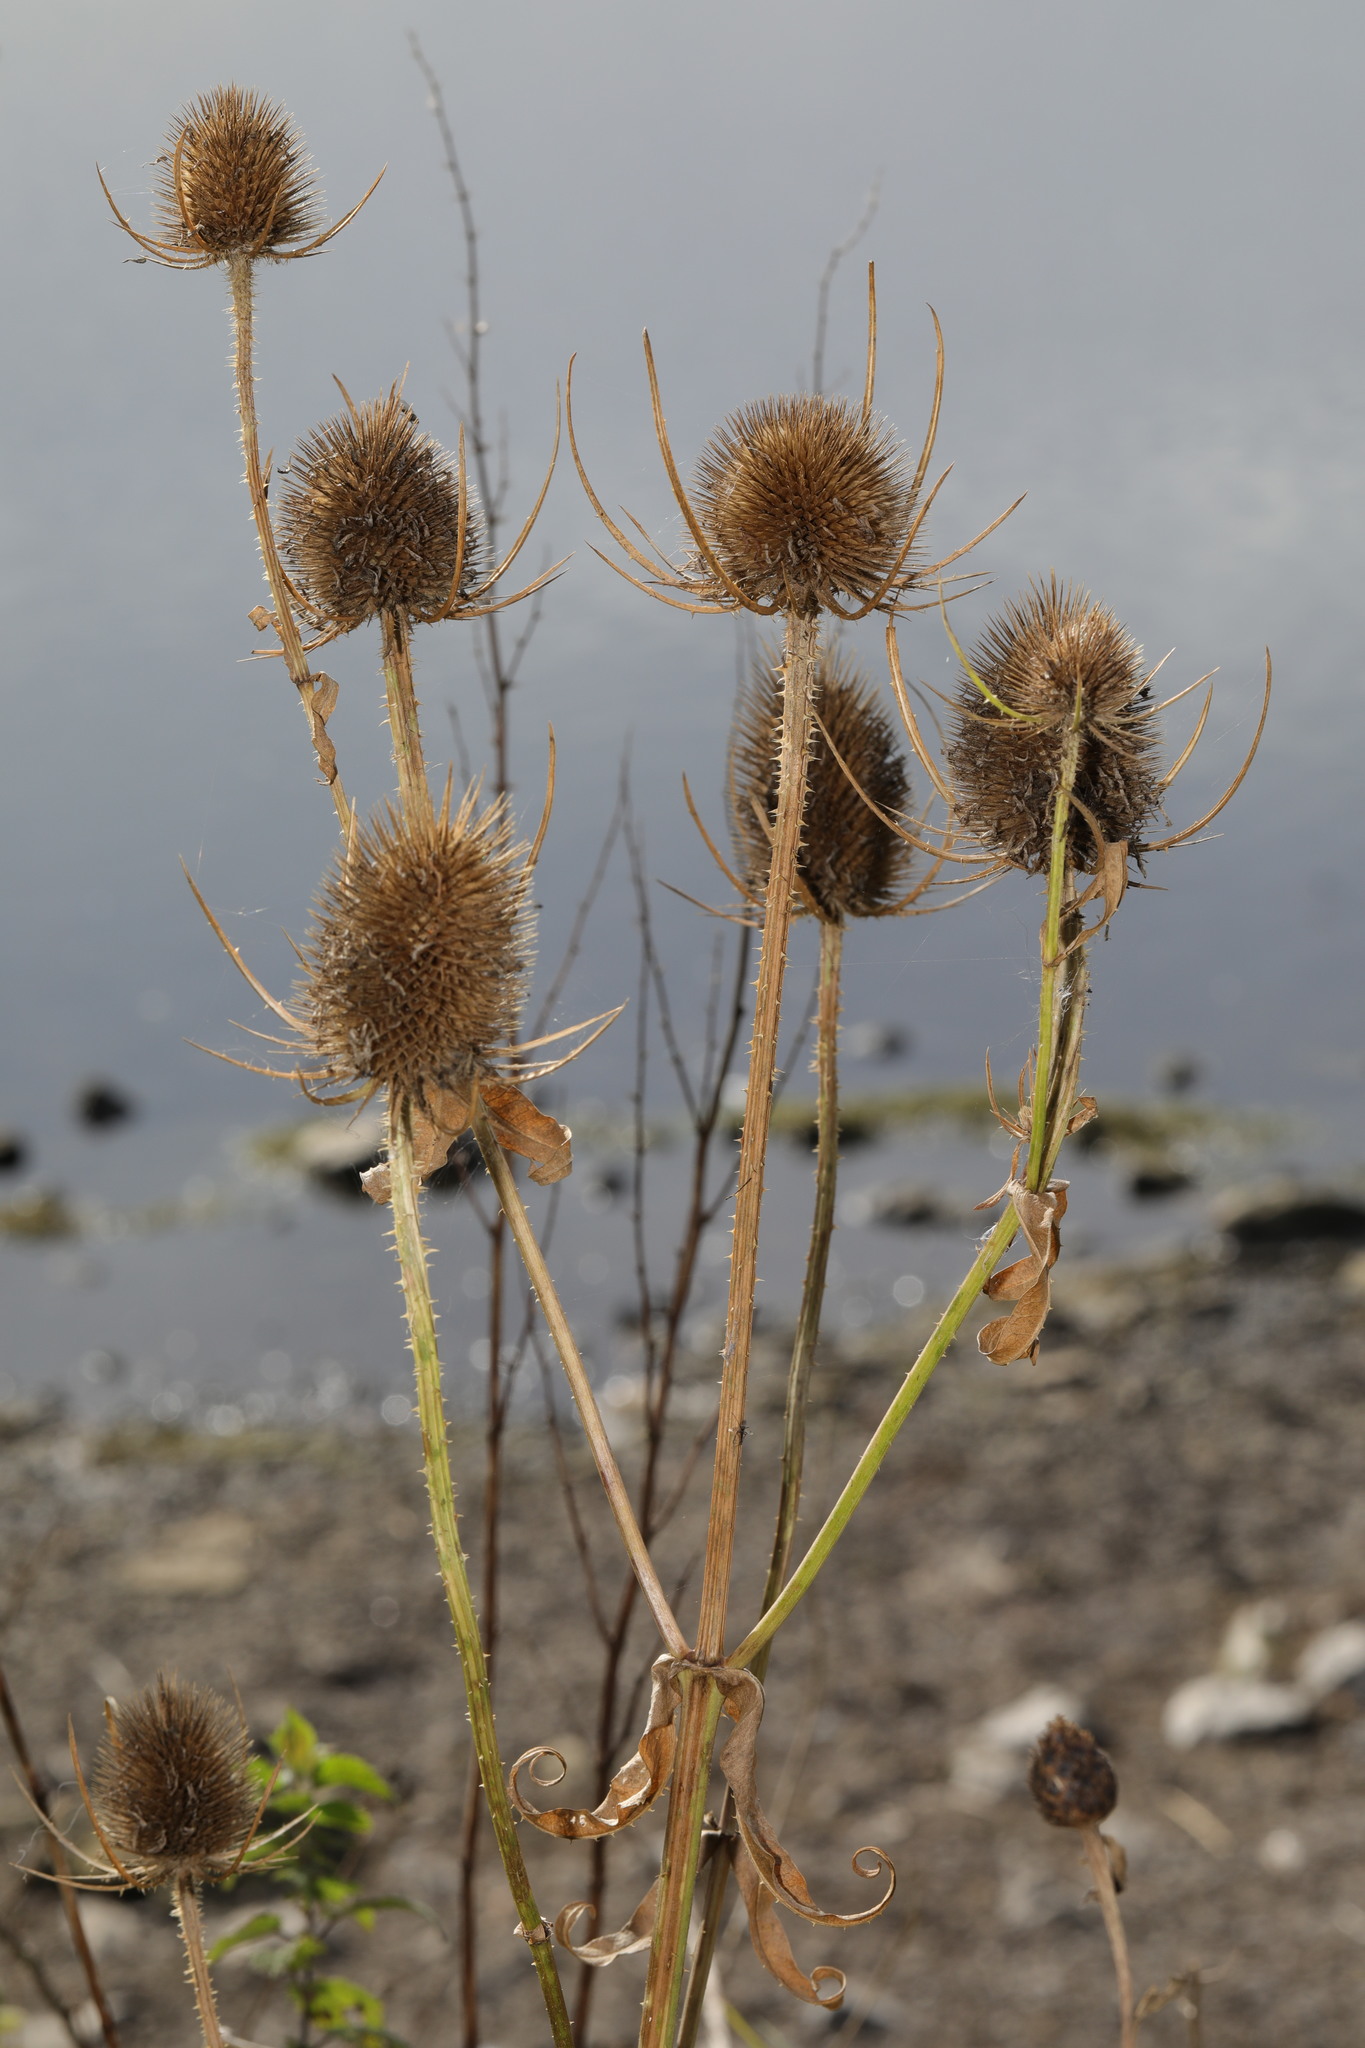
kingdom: Plantae
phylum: Tracheophyta
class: Magnoliopsida
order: Dipsacales
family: Caprifoliaceae
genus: Dipsacus
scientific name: Dipsacus fullonum
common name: Teasel
